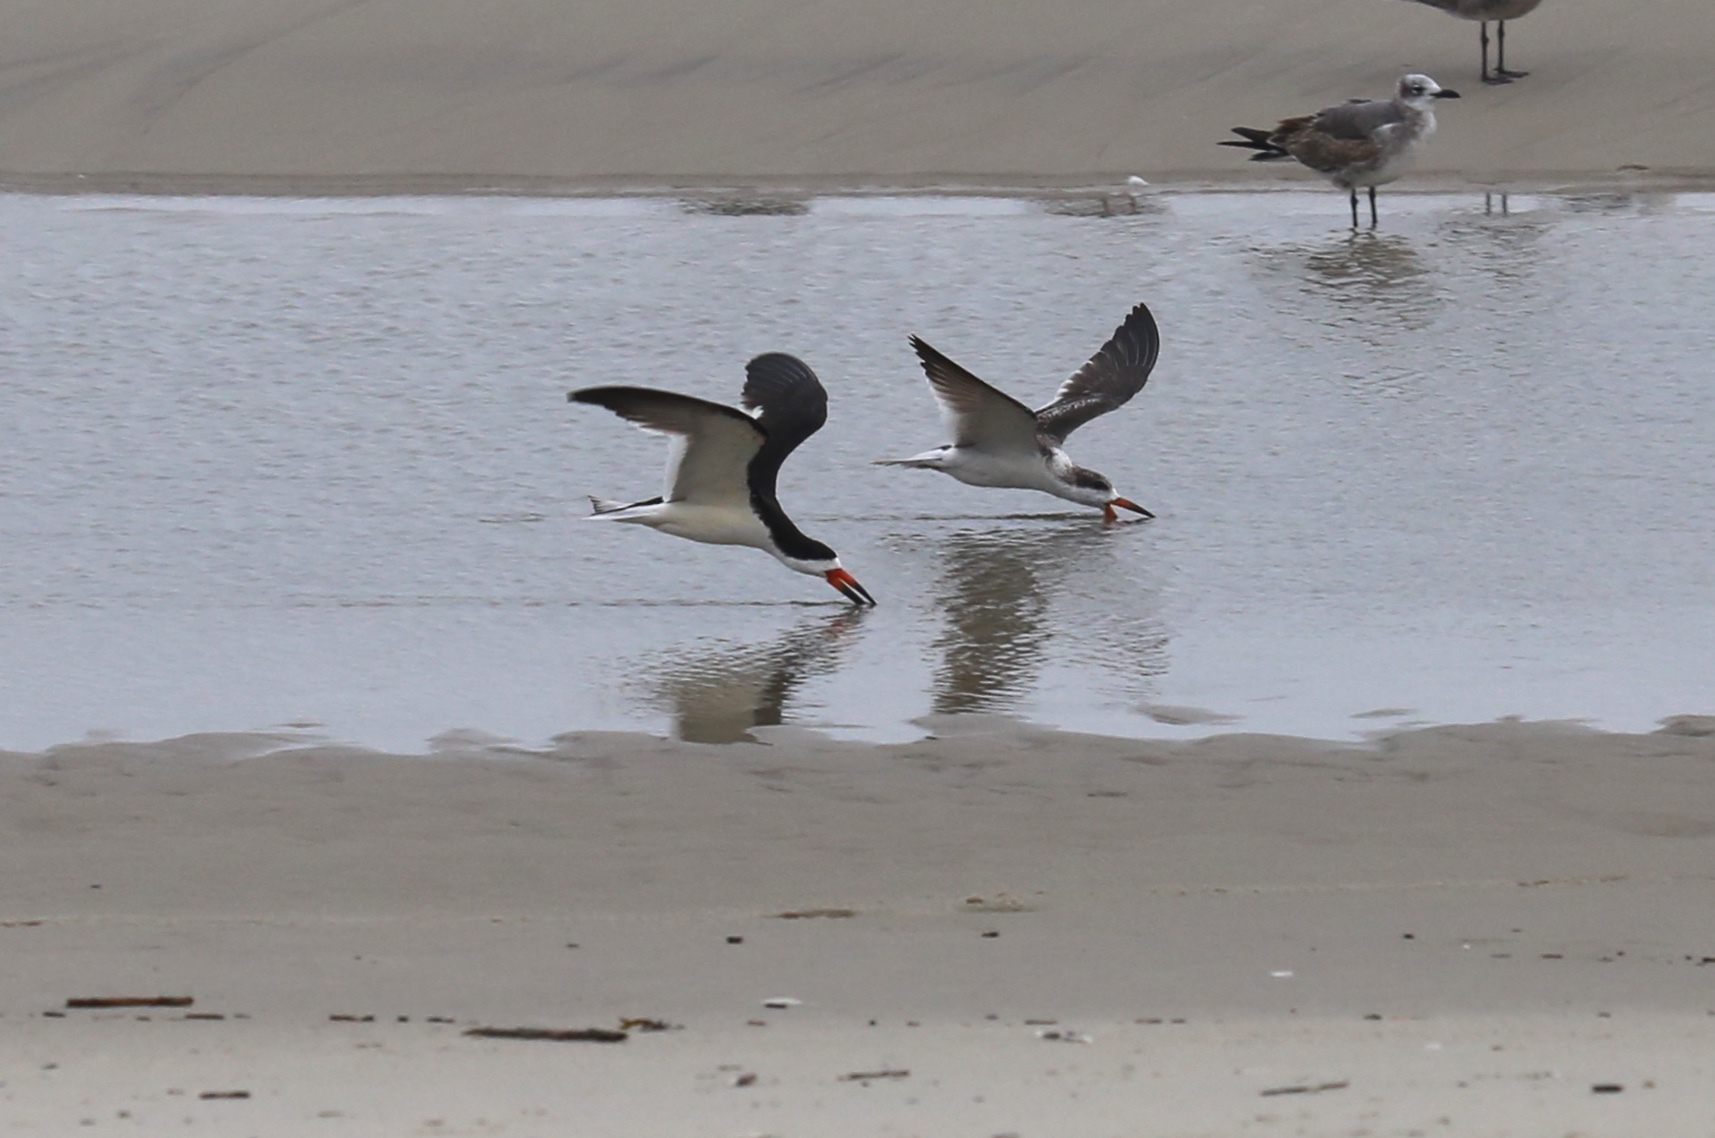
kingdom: Animalia
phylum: Chordata
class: Aves
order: Charadriiformes
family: Laridae
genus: Rynchops
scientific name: Rynchops niger
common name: Black skimmer
